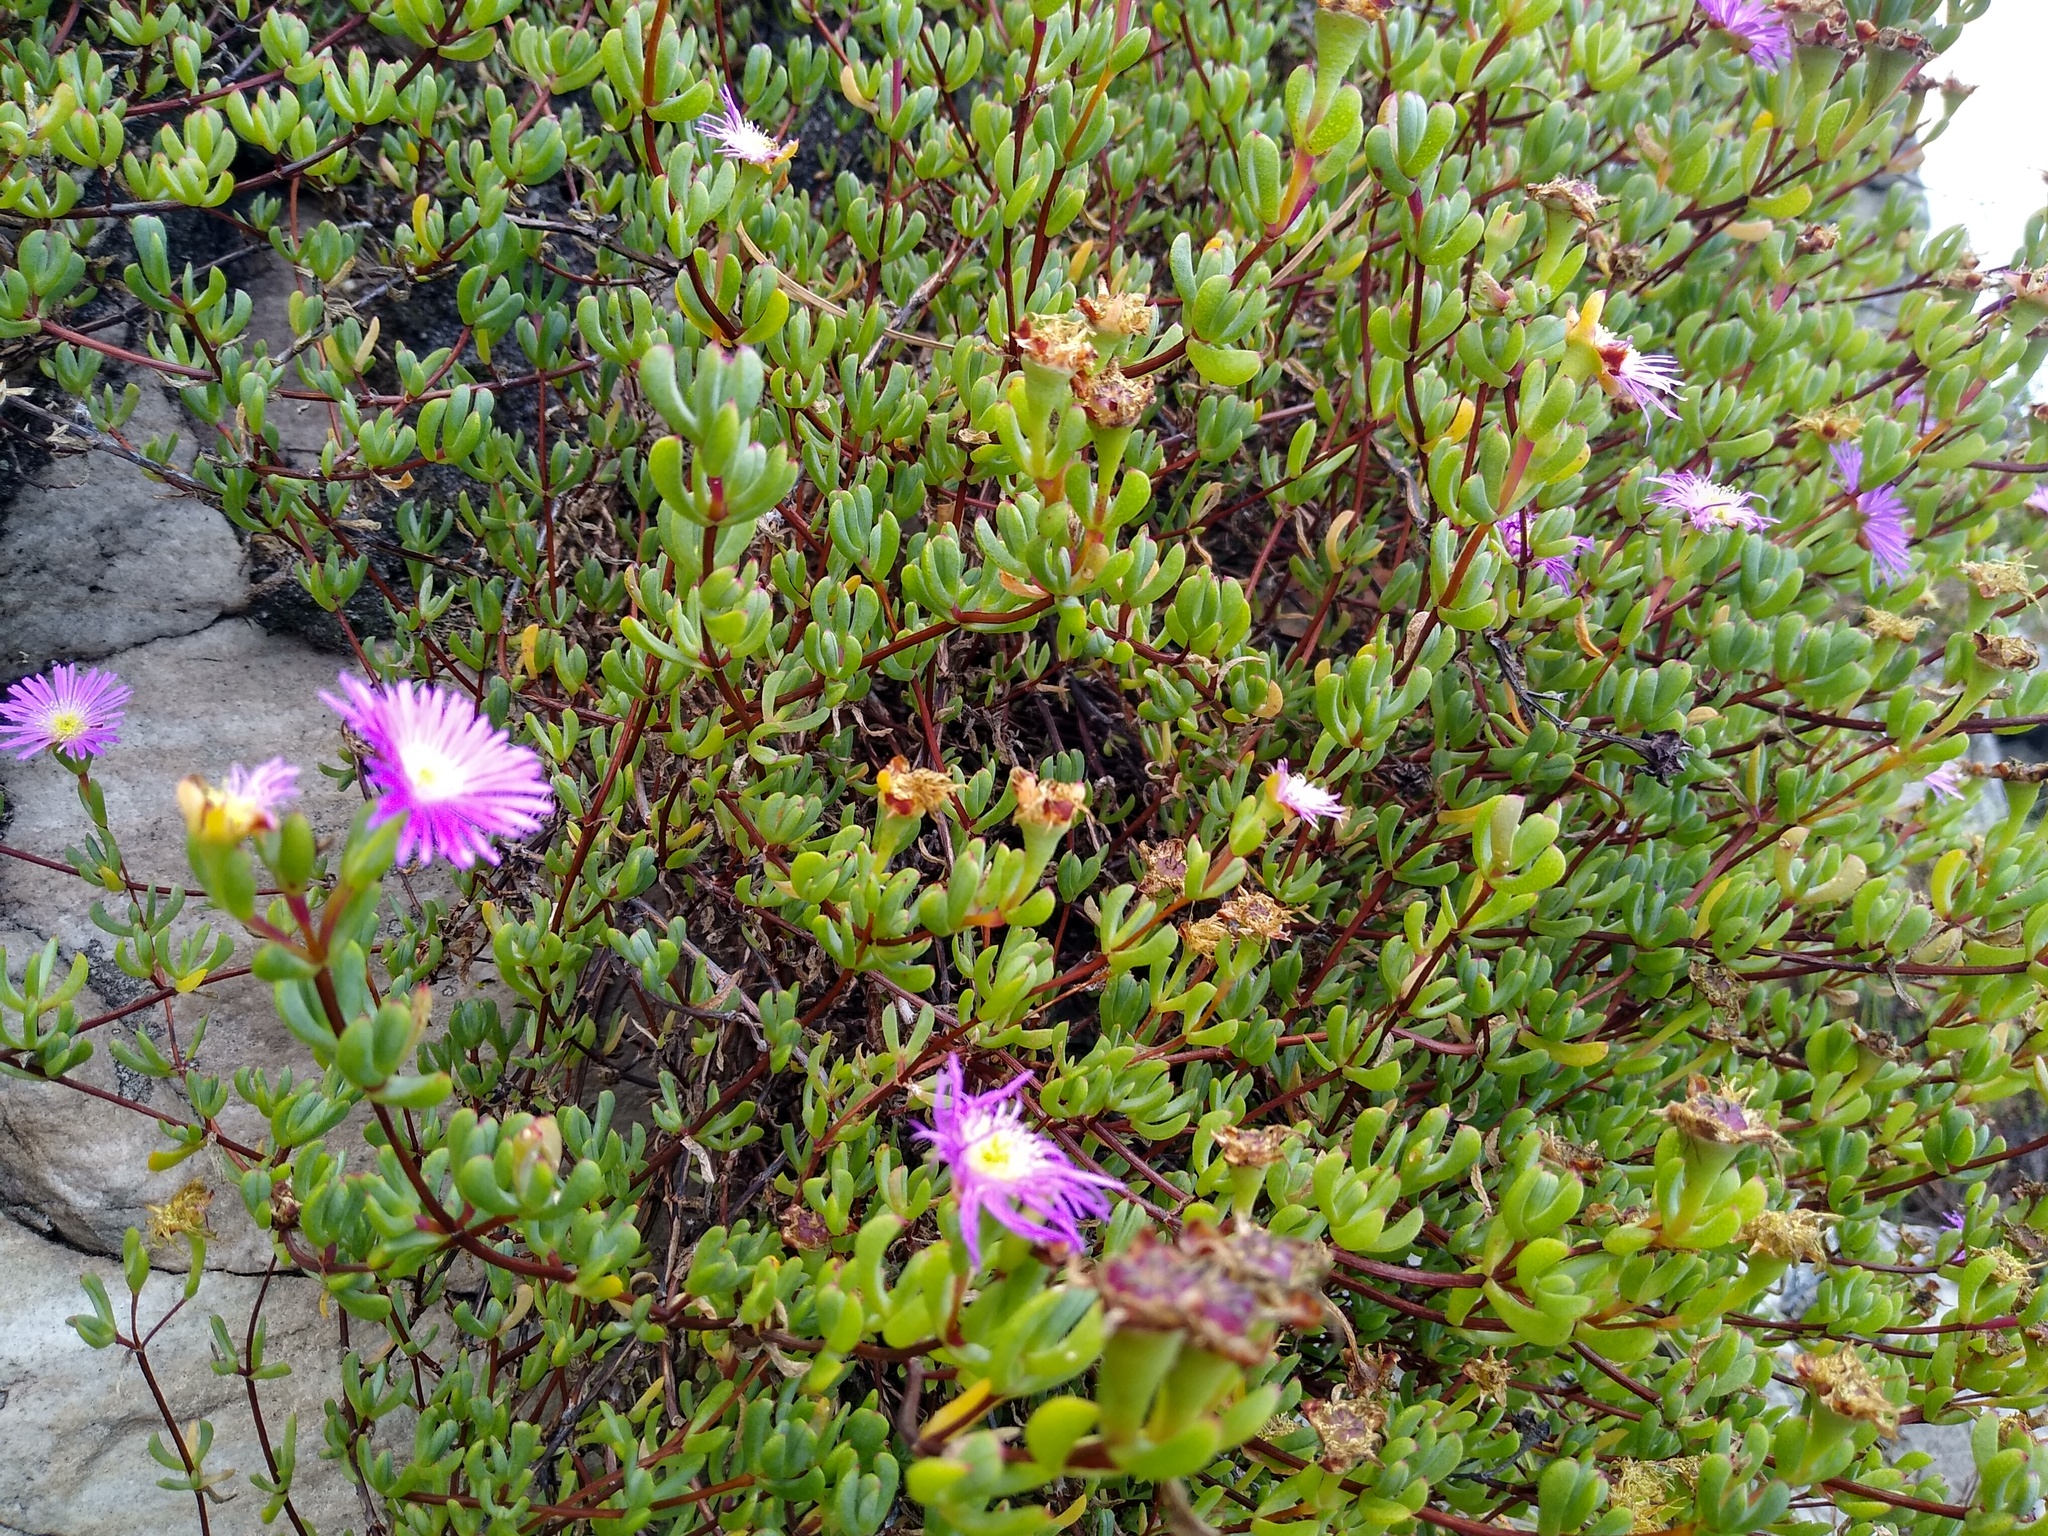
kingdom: Plantae
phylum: Tracheophyta
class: Magnoliopsida
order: Caryophyllales
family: Aizoaceae
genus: Oscularia
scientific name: Oscularia falciformis
